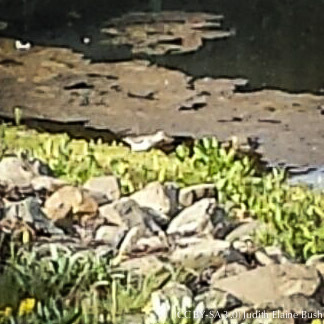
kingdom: Animalia
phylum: Chordata
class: Aves
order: Charadriiformes
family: Scolopacidae
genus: Actitis
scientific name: Actitis macularius
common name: Spotted sandpiper
